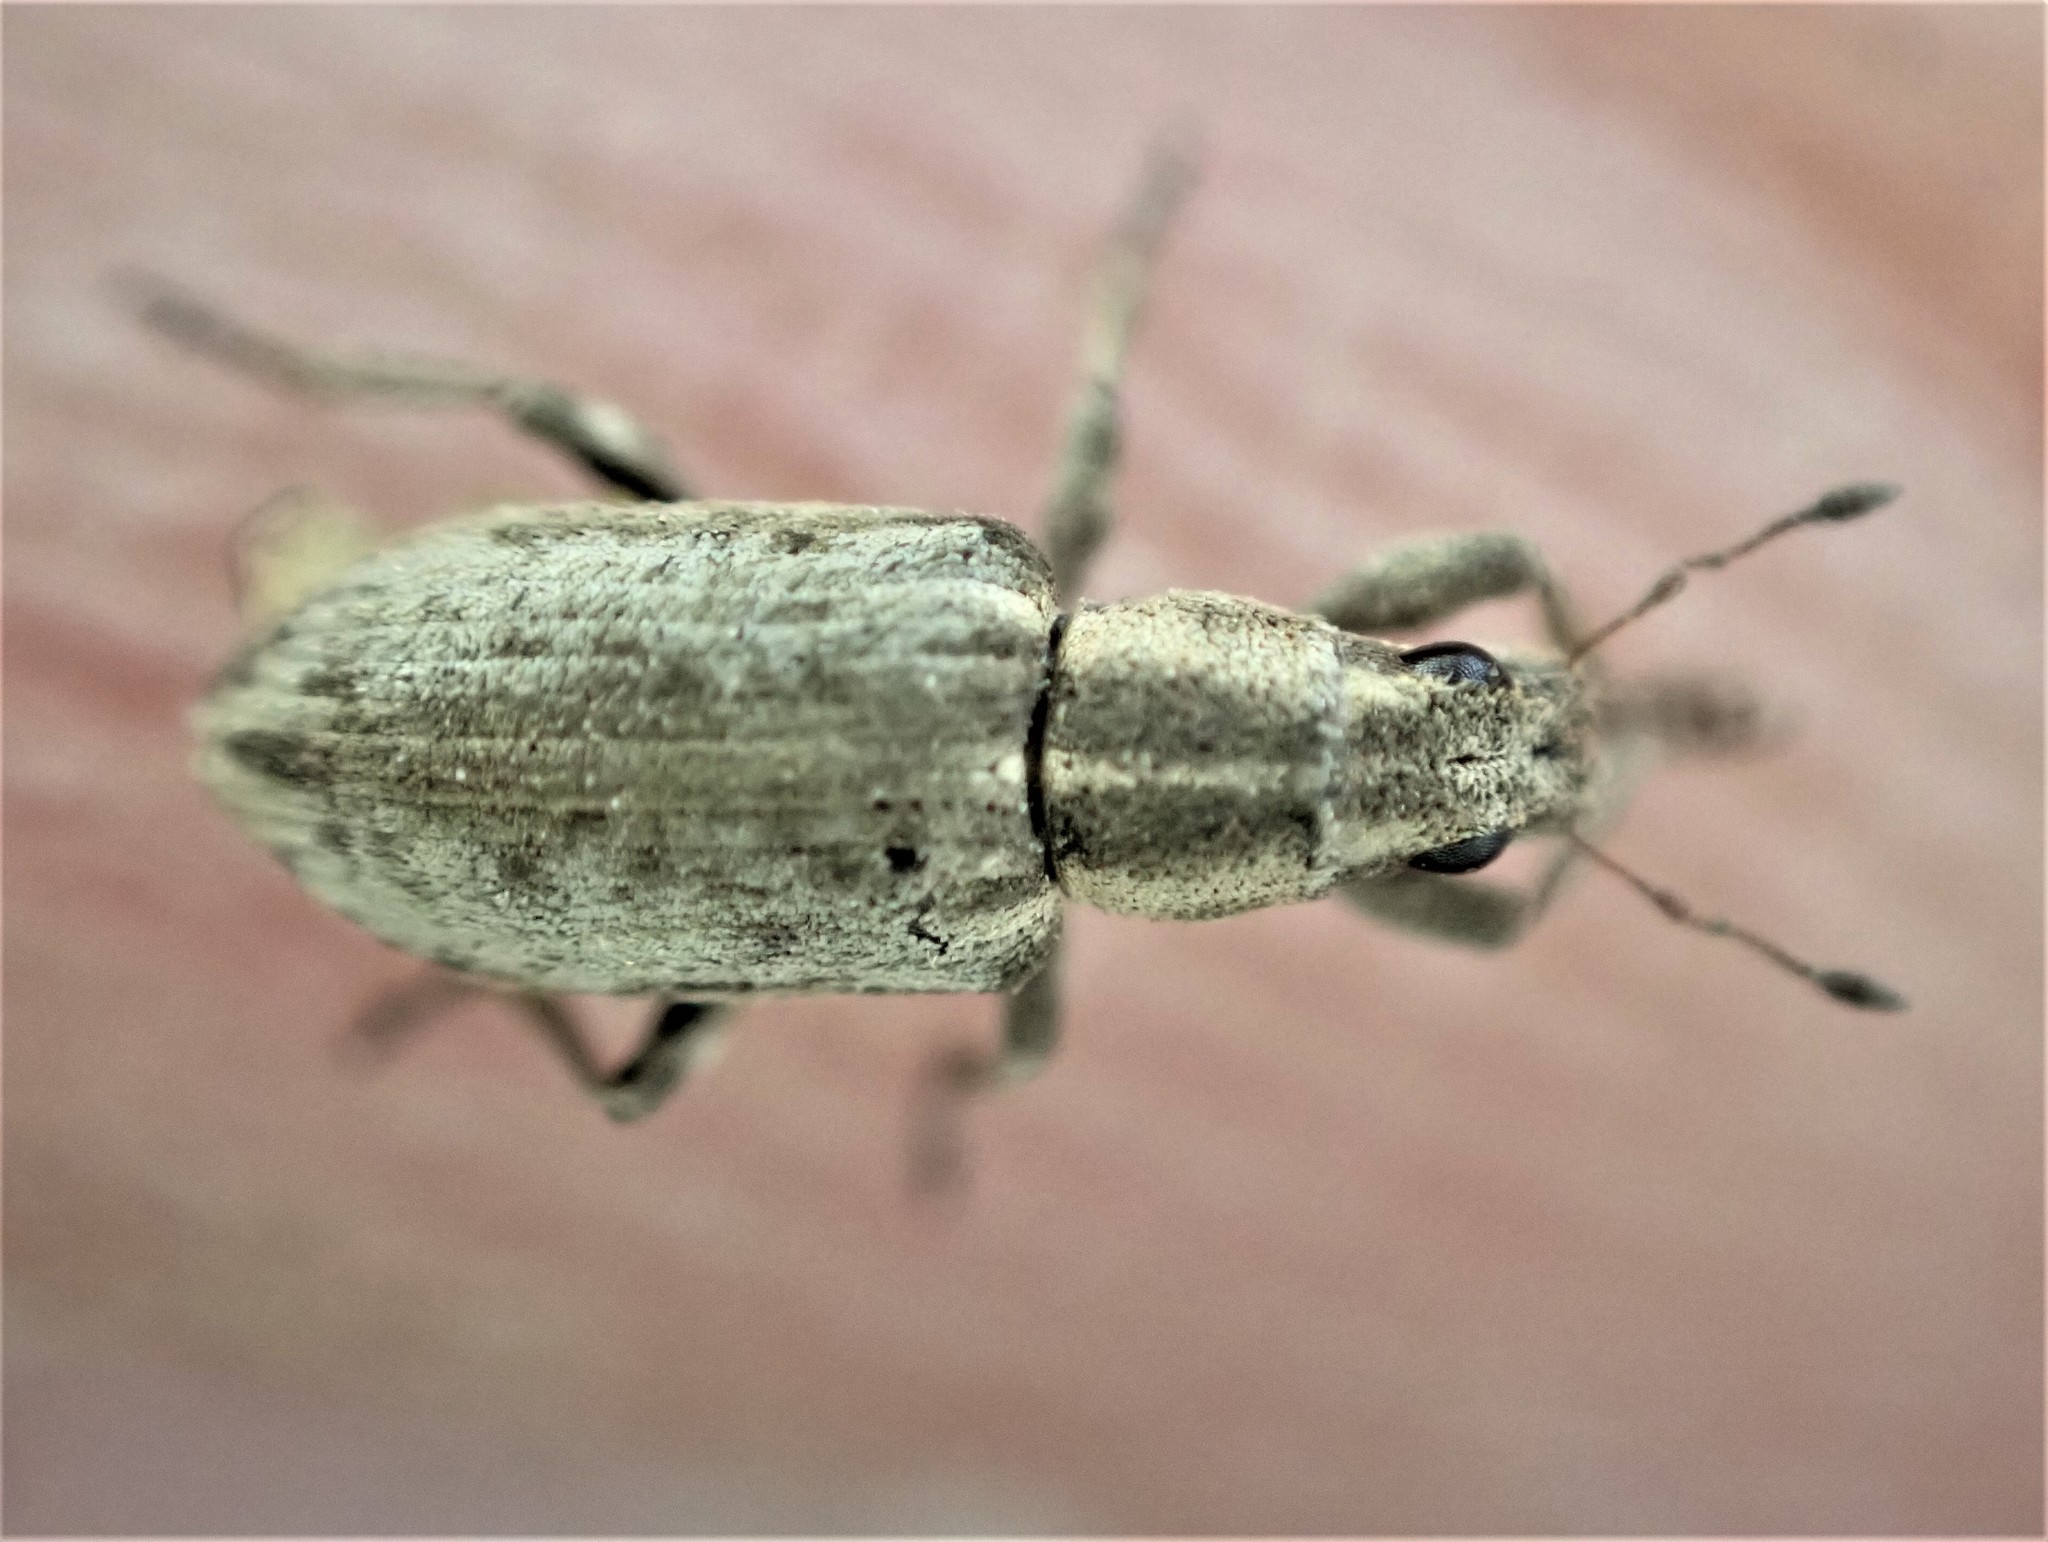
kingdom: Animalia
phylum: Arthropoda
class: Insecta
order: Coleoptera
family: Curculionidae
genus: Sitona
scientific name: Sitona discoideus
